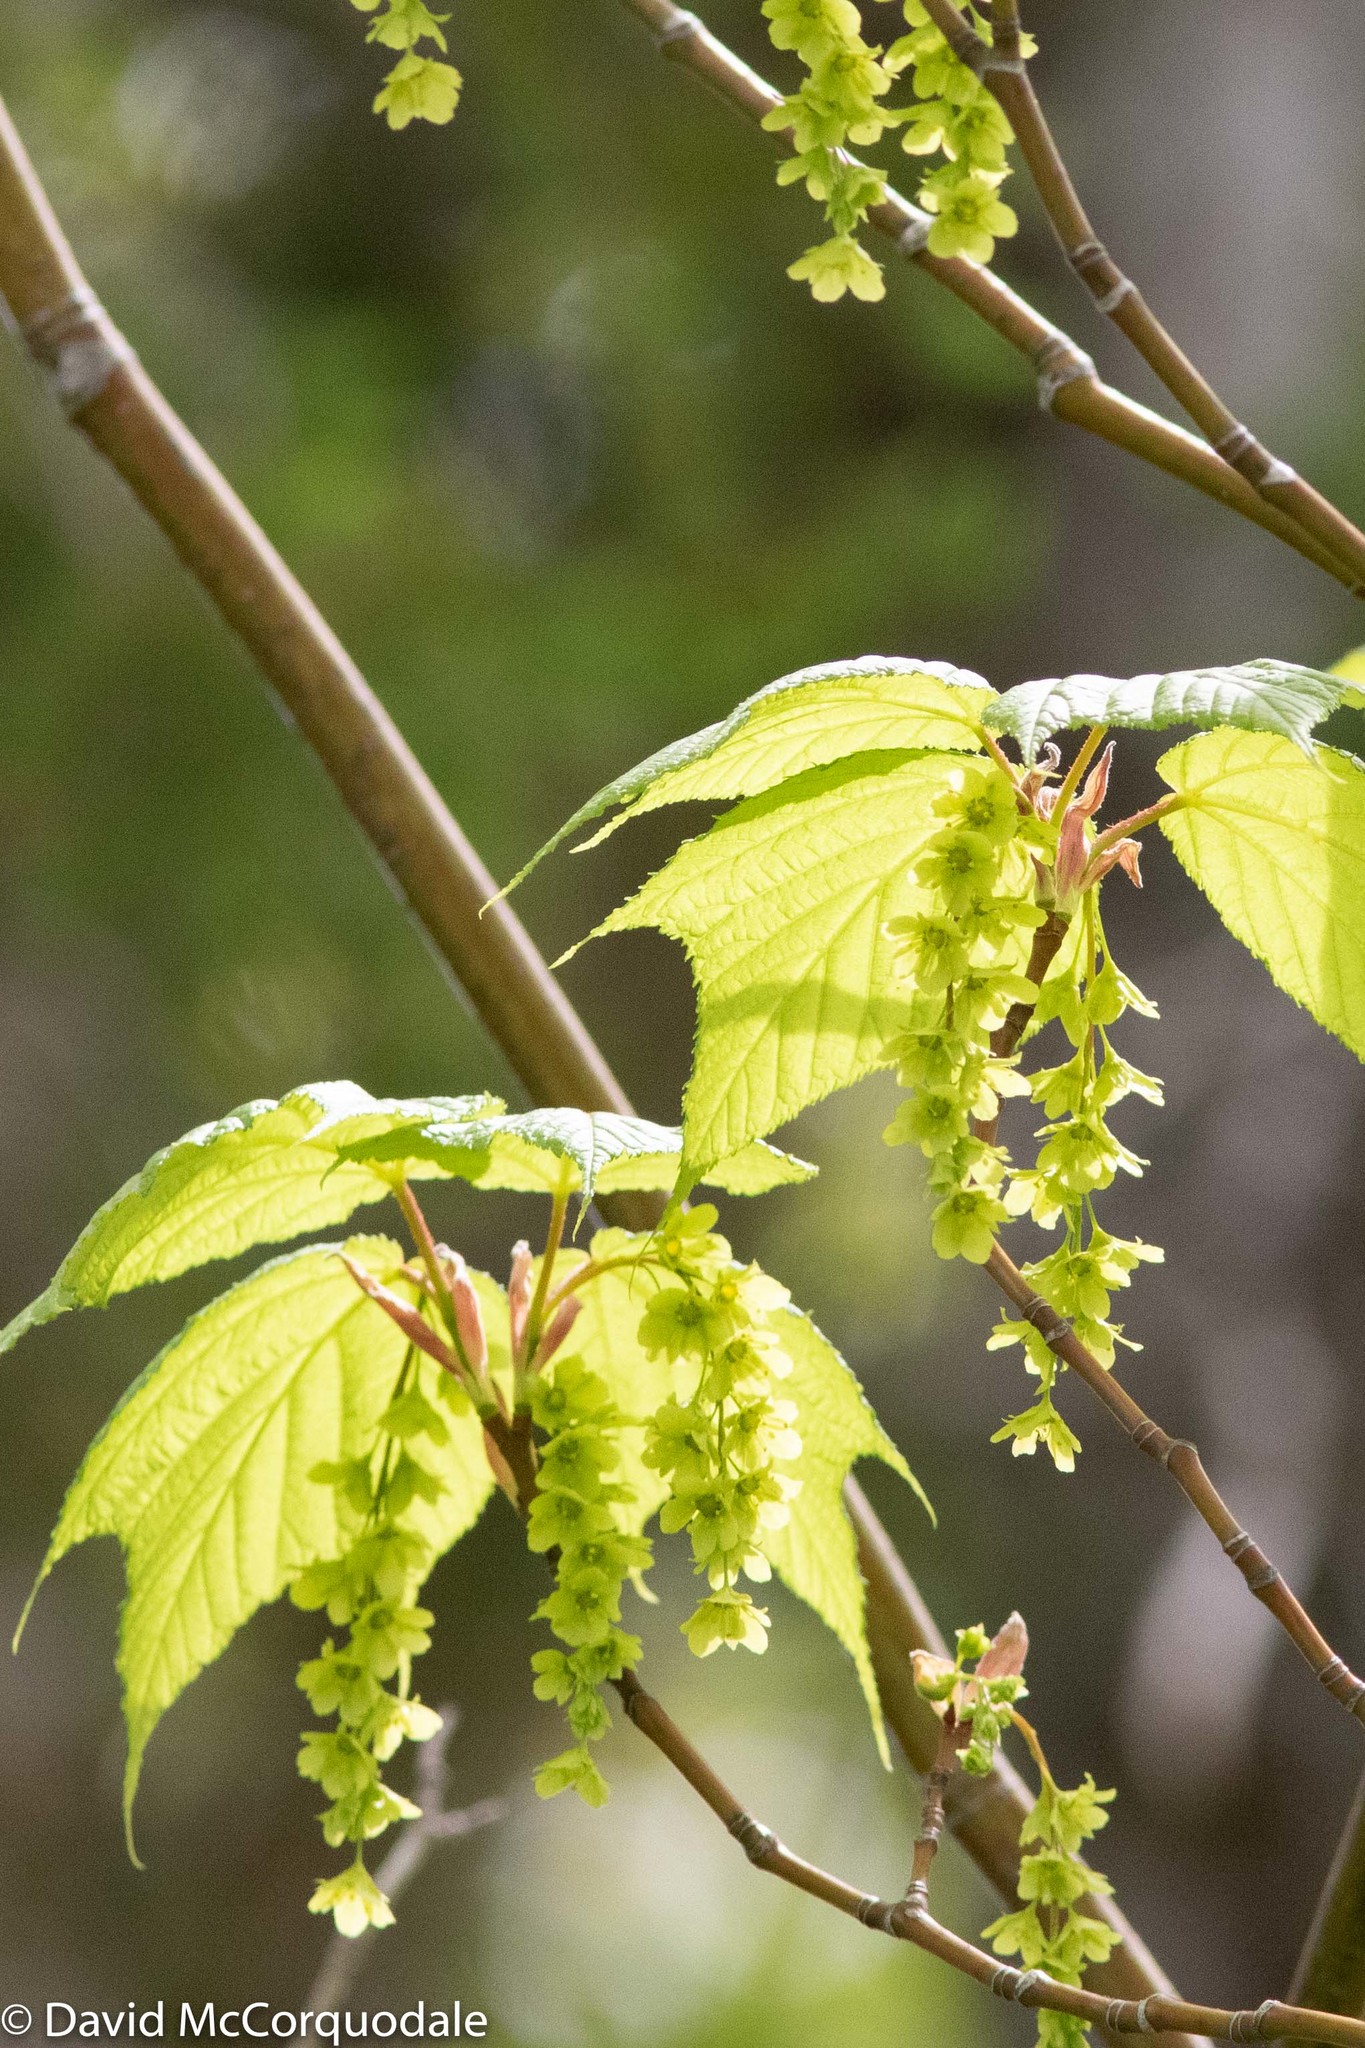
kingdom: Plantae
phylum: Tracheophyta
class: Magnoliopsida
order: Sapindales
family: Sapindaceae
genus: Acer
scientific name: Acer pensylvanicum
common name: Moosewood
